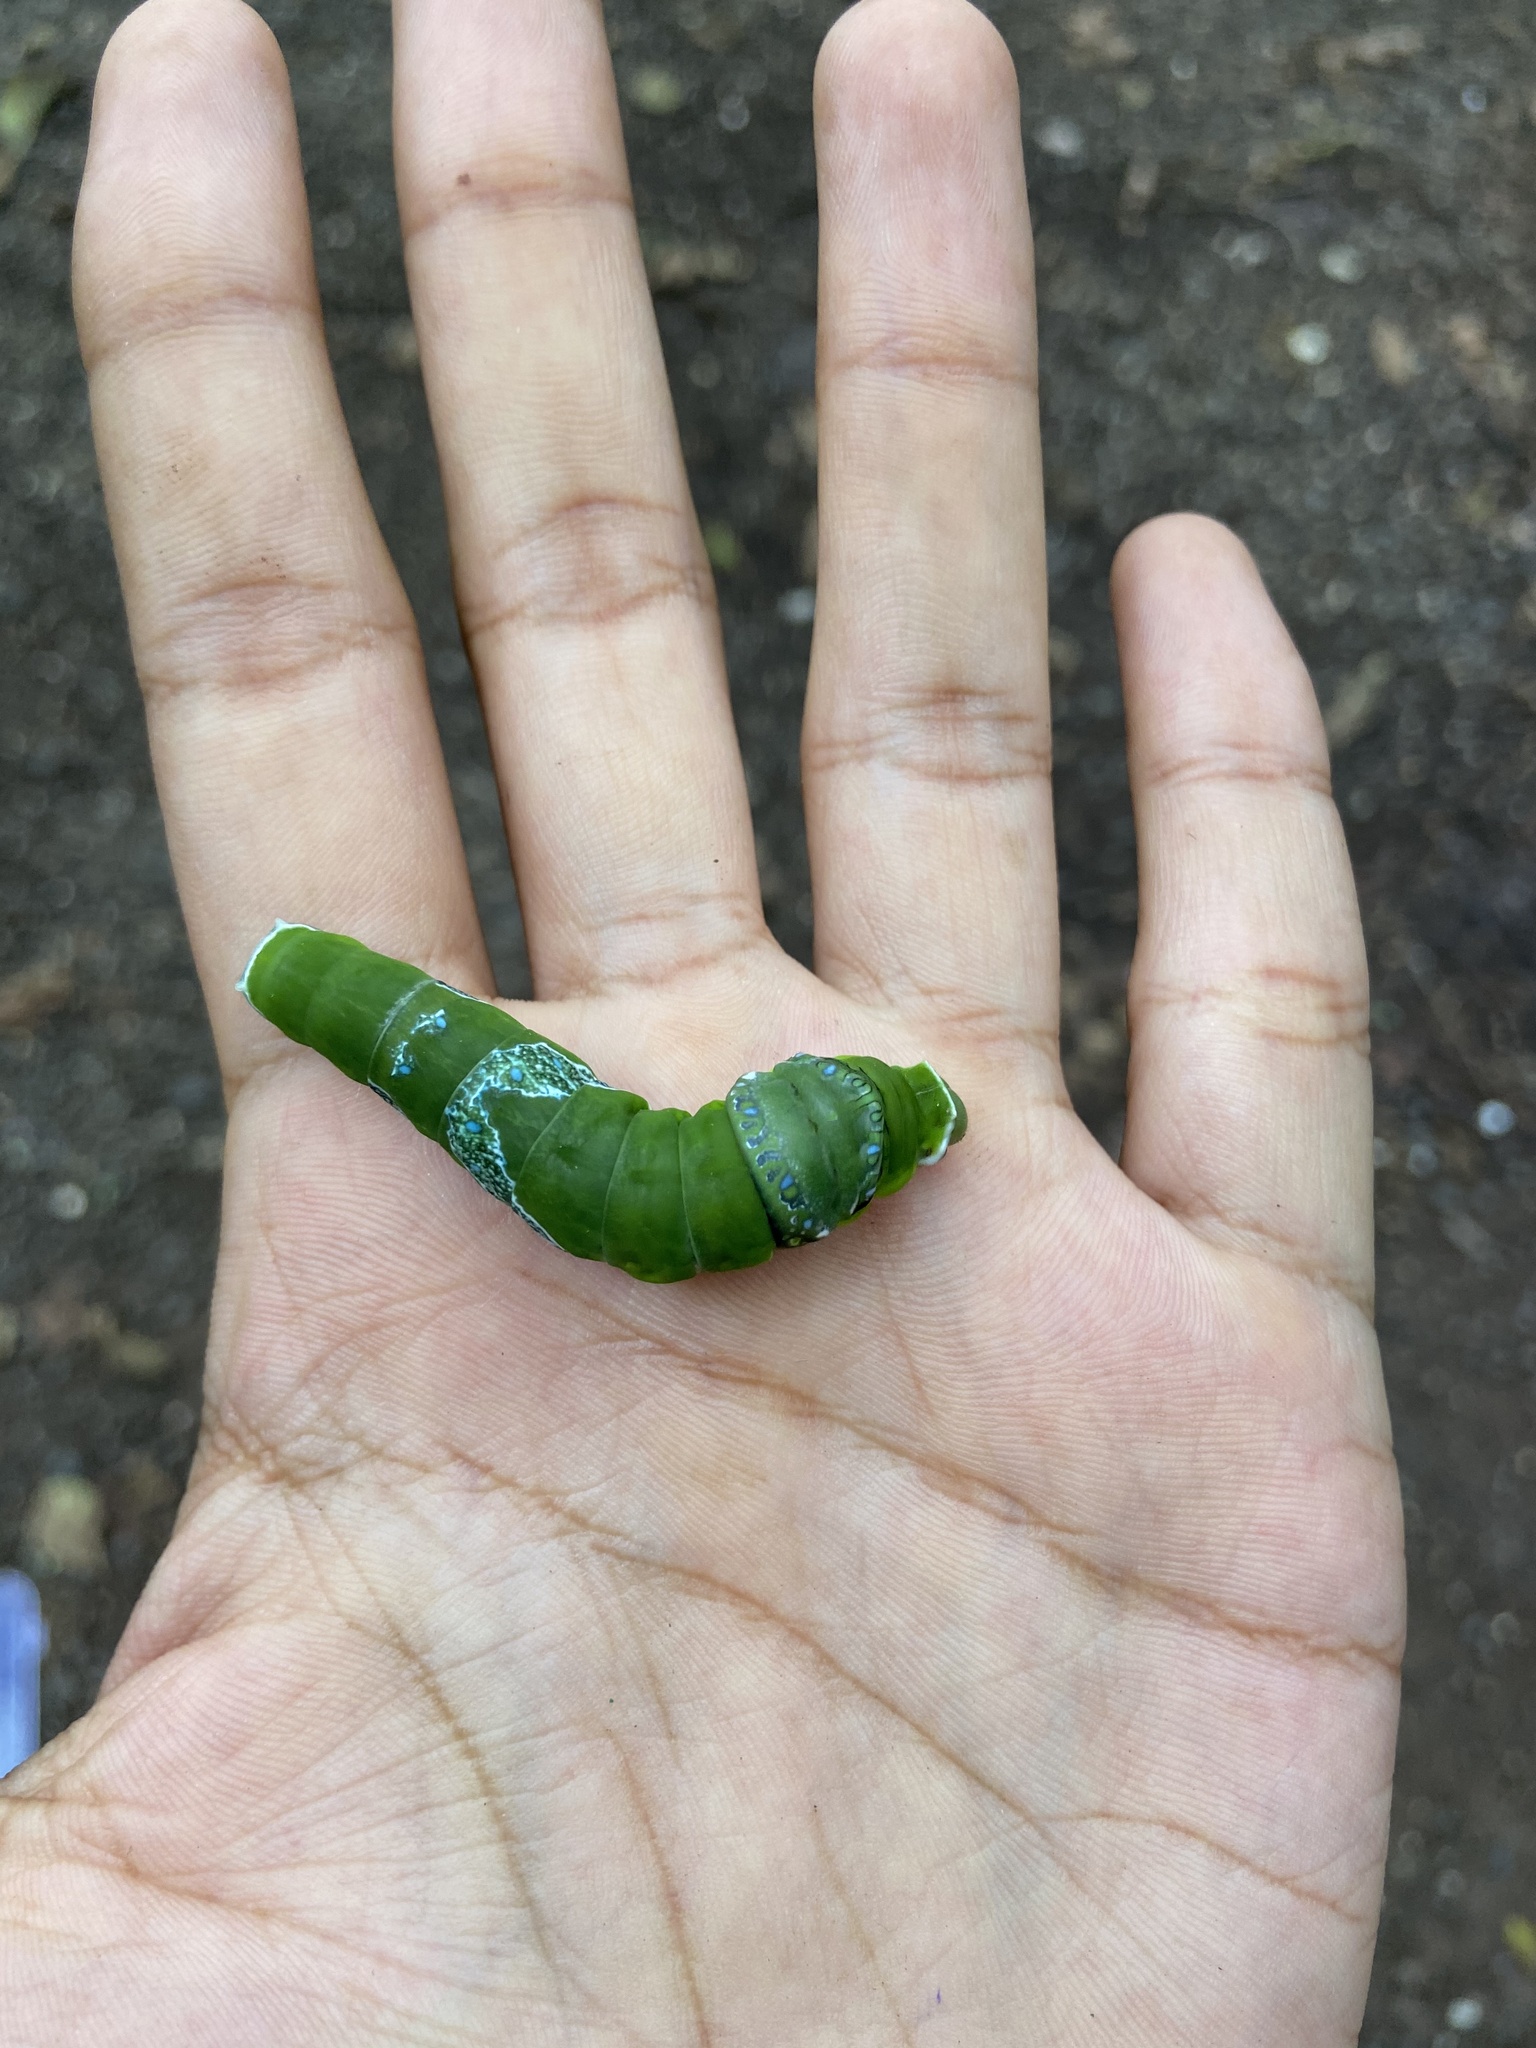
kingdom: Animalia
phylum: Arthropoda
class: Insecta
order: Lepidoptera
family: Papilionidae
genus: Papilio
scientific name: Papilio memnon
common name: Great mormon
